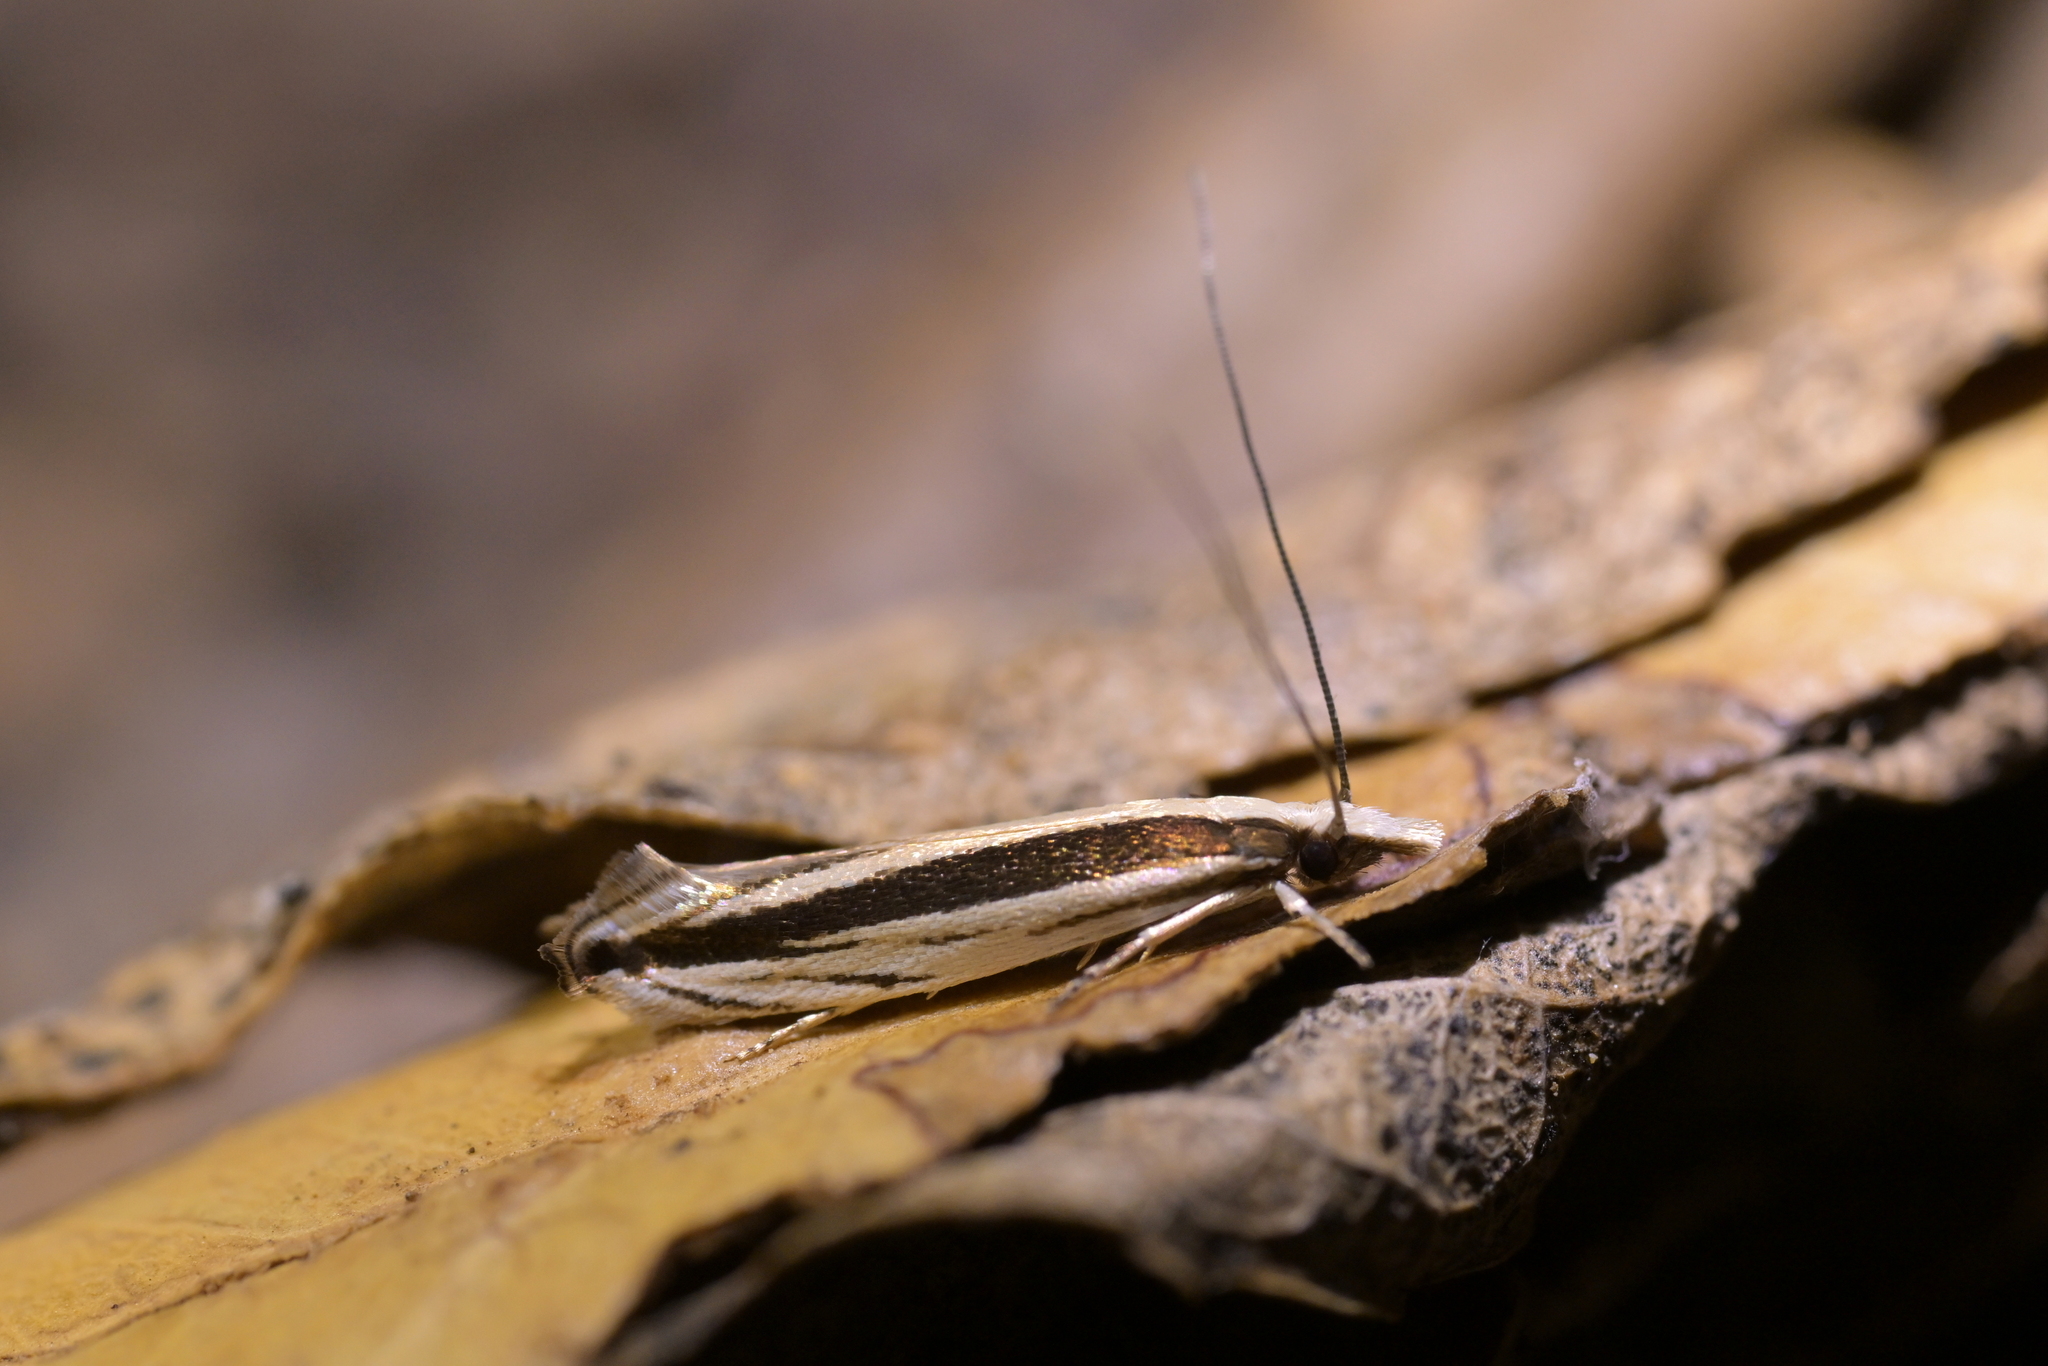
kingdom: Animalia
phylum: Arthropoda
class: Insecta
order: Lepidoptera
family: Tineidae
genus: Erechthias
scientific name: Erechthias stilbella
